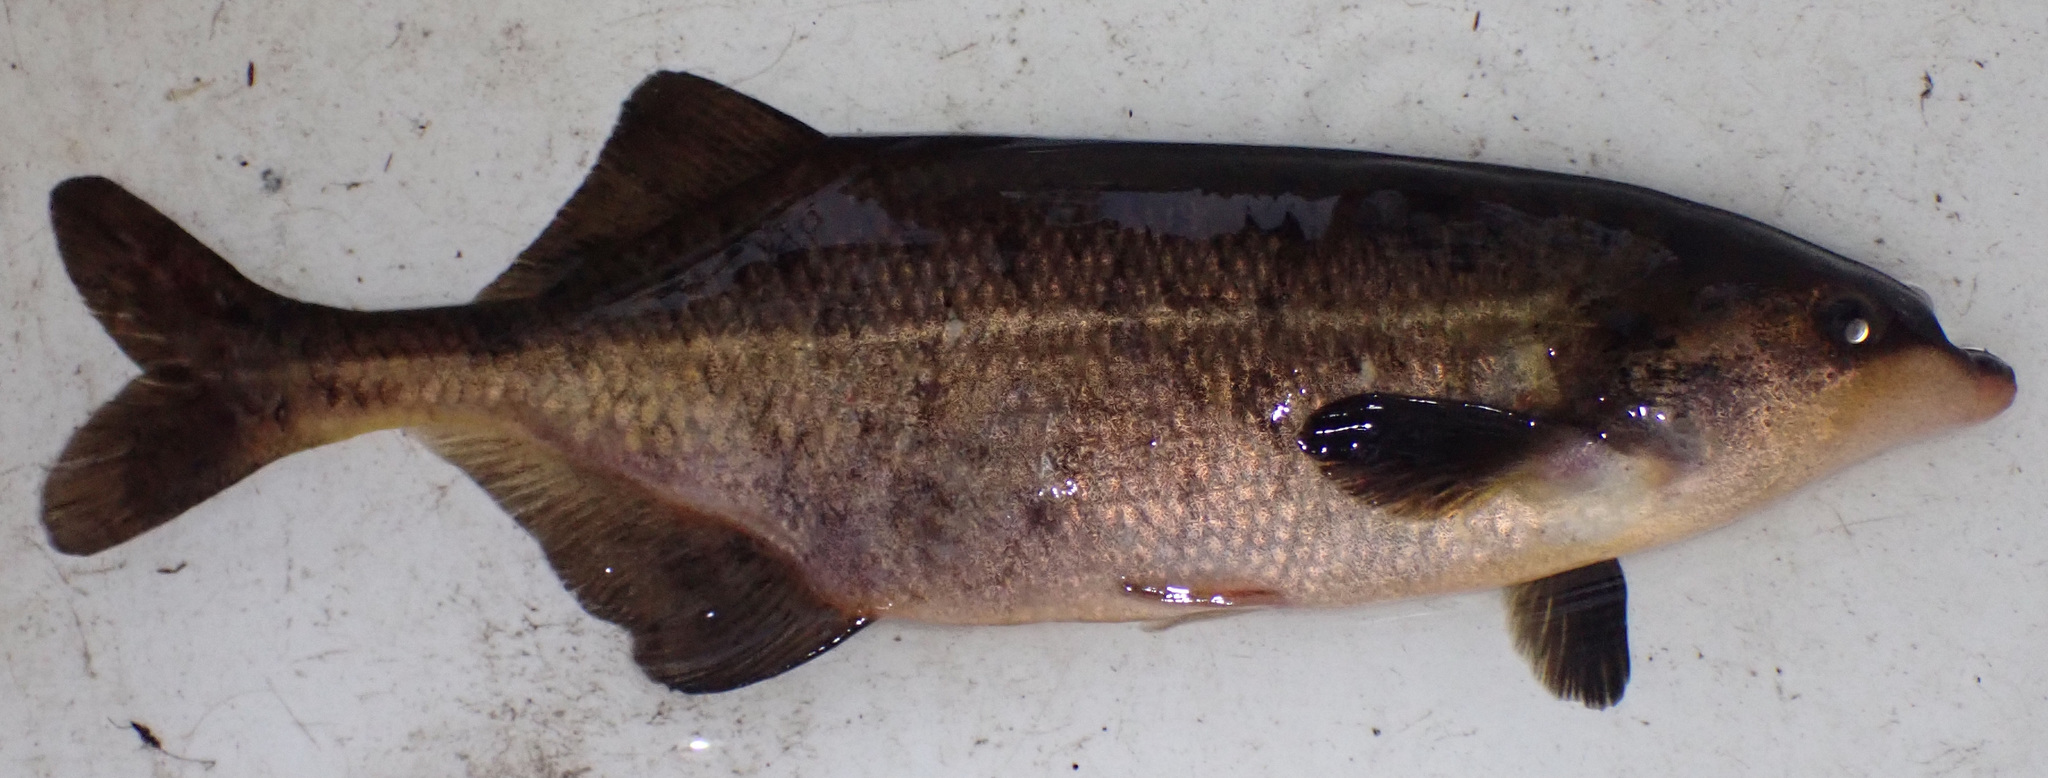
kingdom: Animalia
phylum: Chordata
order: Osteoglossiformes
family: Mormyridae
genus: Marcusenius
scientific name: Marcusenius altisambesi
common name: Bulldog
